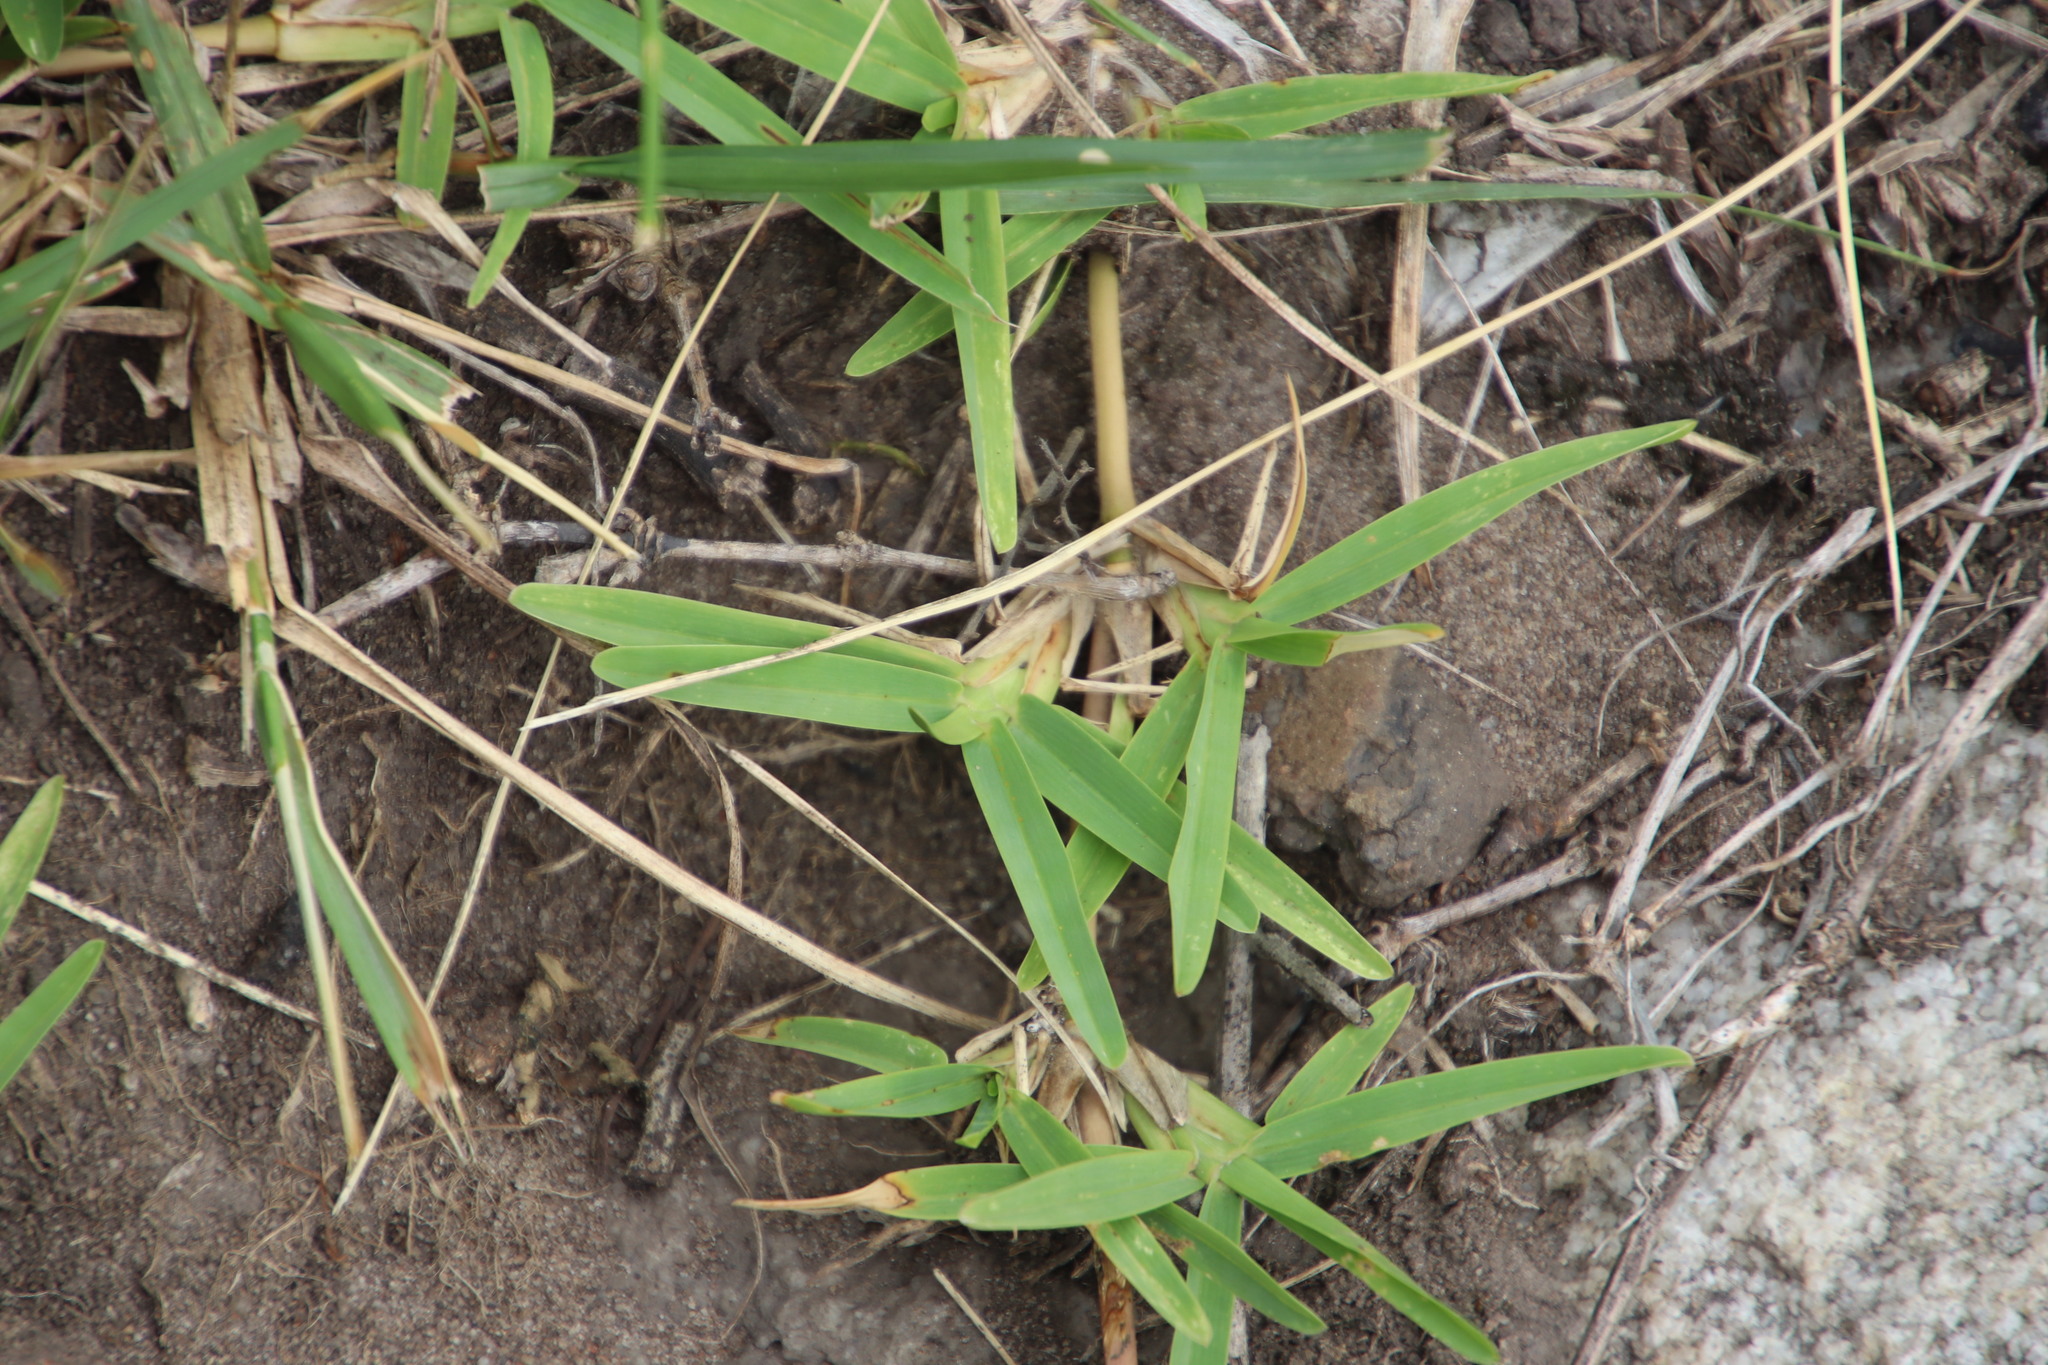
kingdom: Plantae
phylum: Tracheophyta
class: Liliopsida
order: Poales
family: Poaceae
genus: Stenotaphrum
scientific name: Stenotaphrum secundatum
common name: St. augustine grass
